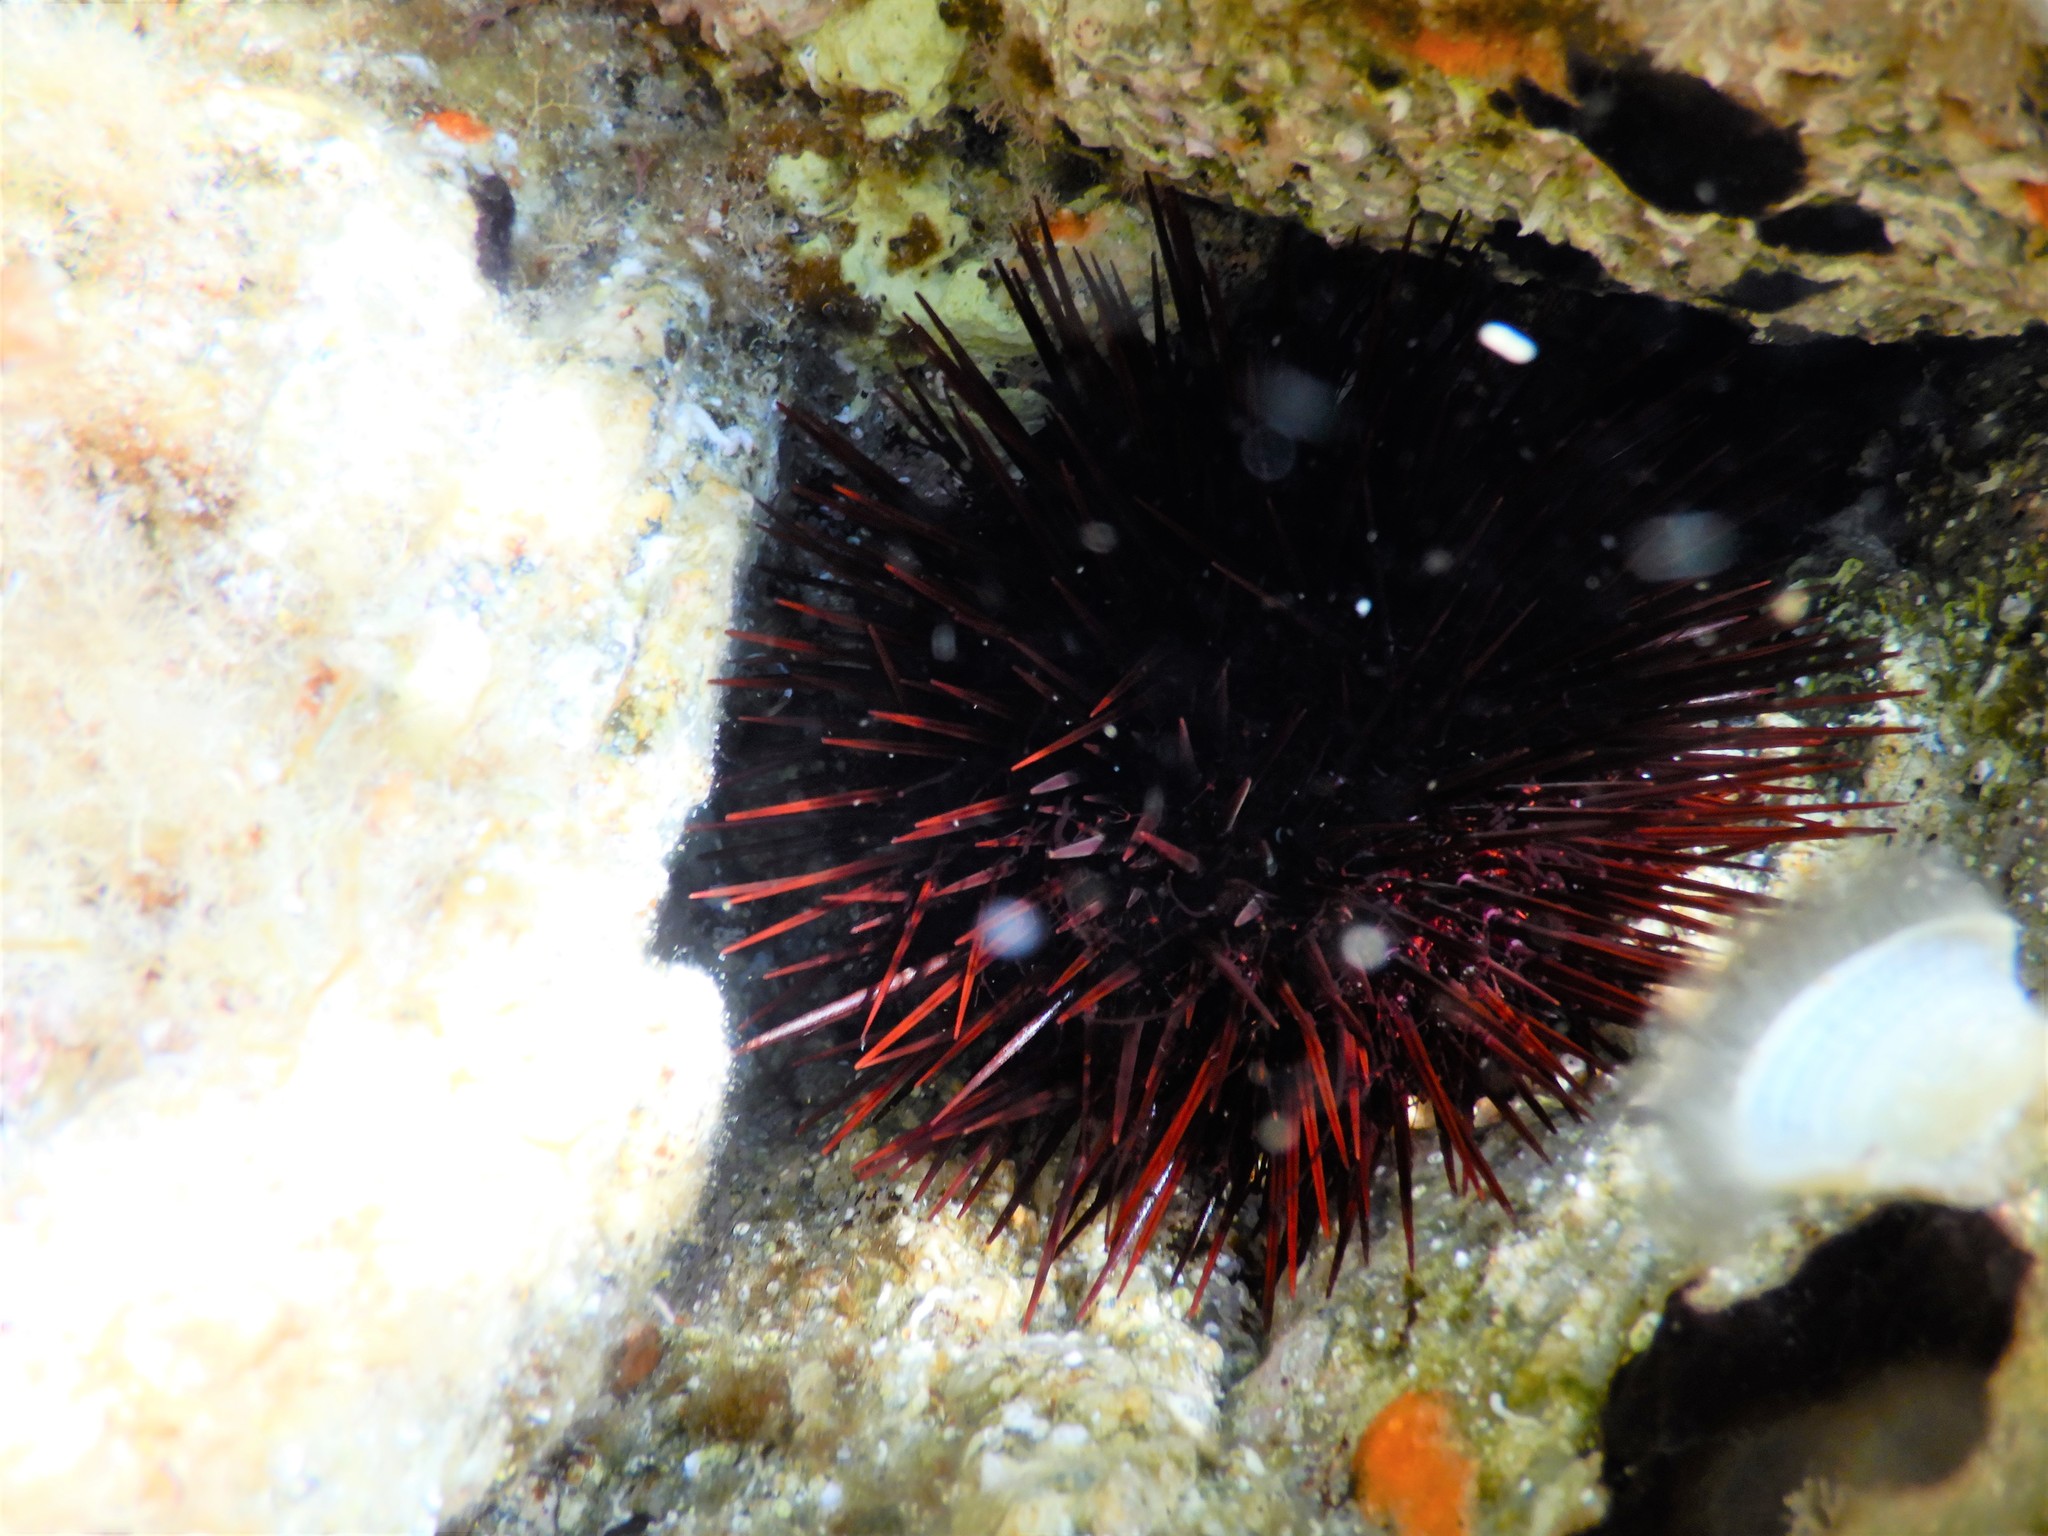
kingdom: Animalia
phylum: Echinodermata
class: Echinoidea
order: Camarodonta
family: Parechinidae
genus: Paracentrotus
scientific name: Paracentrotus lividus
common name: Purple sea urchin
